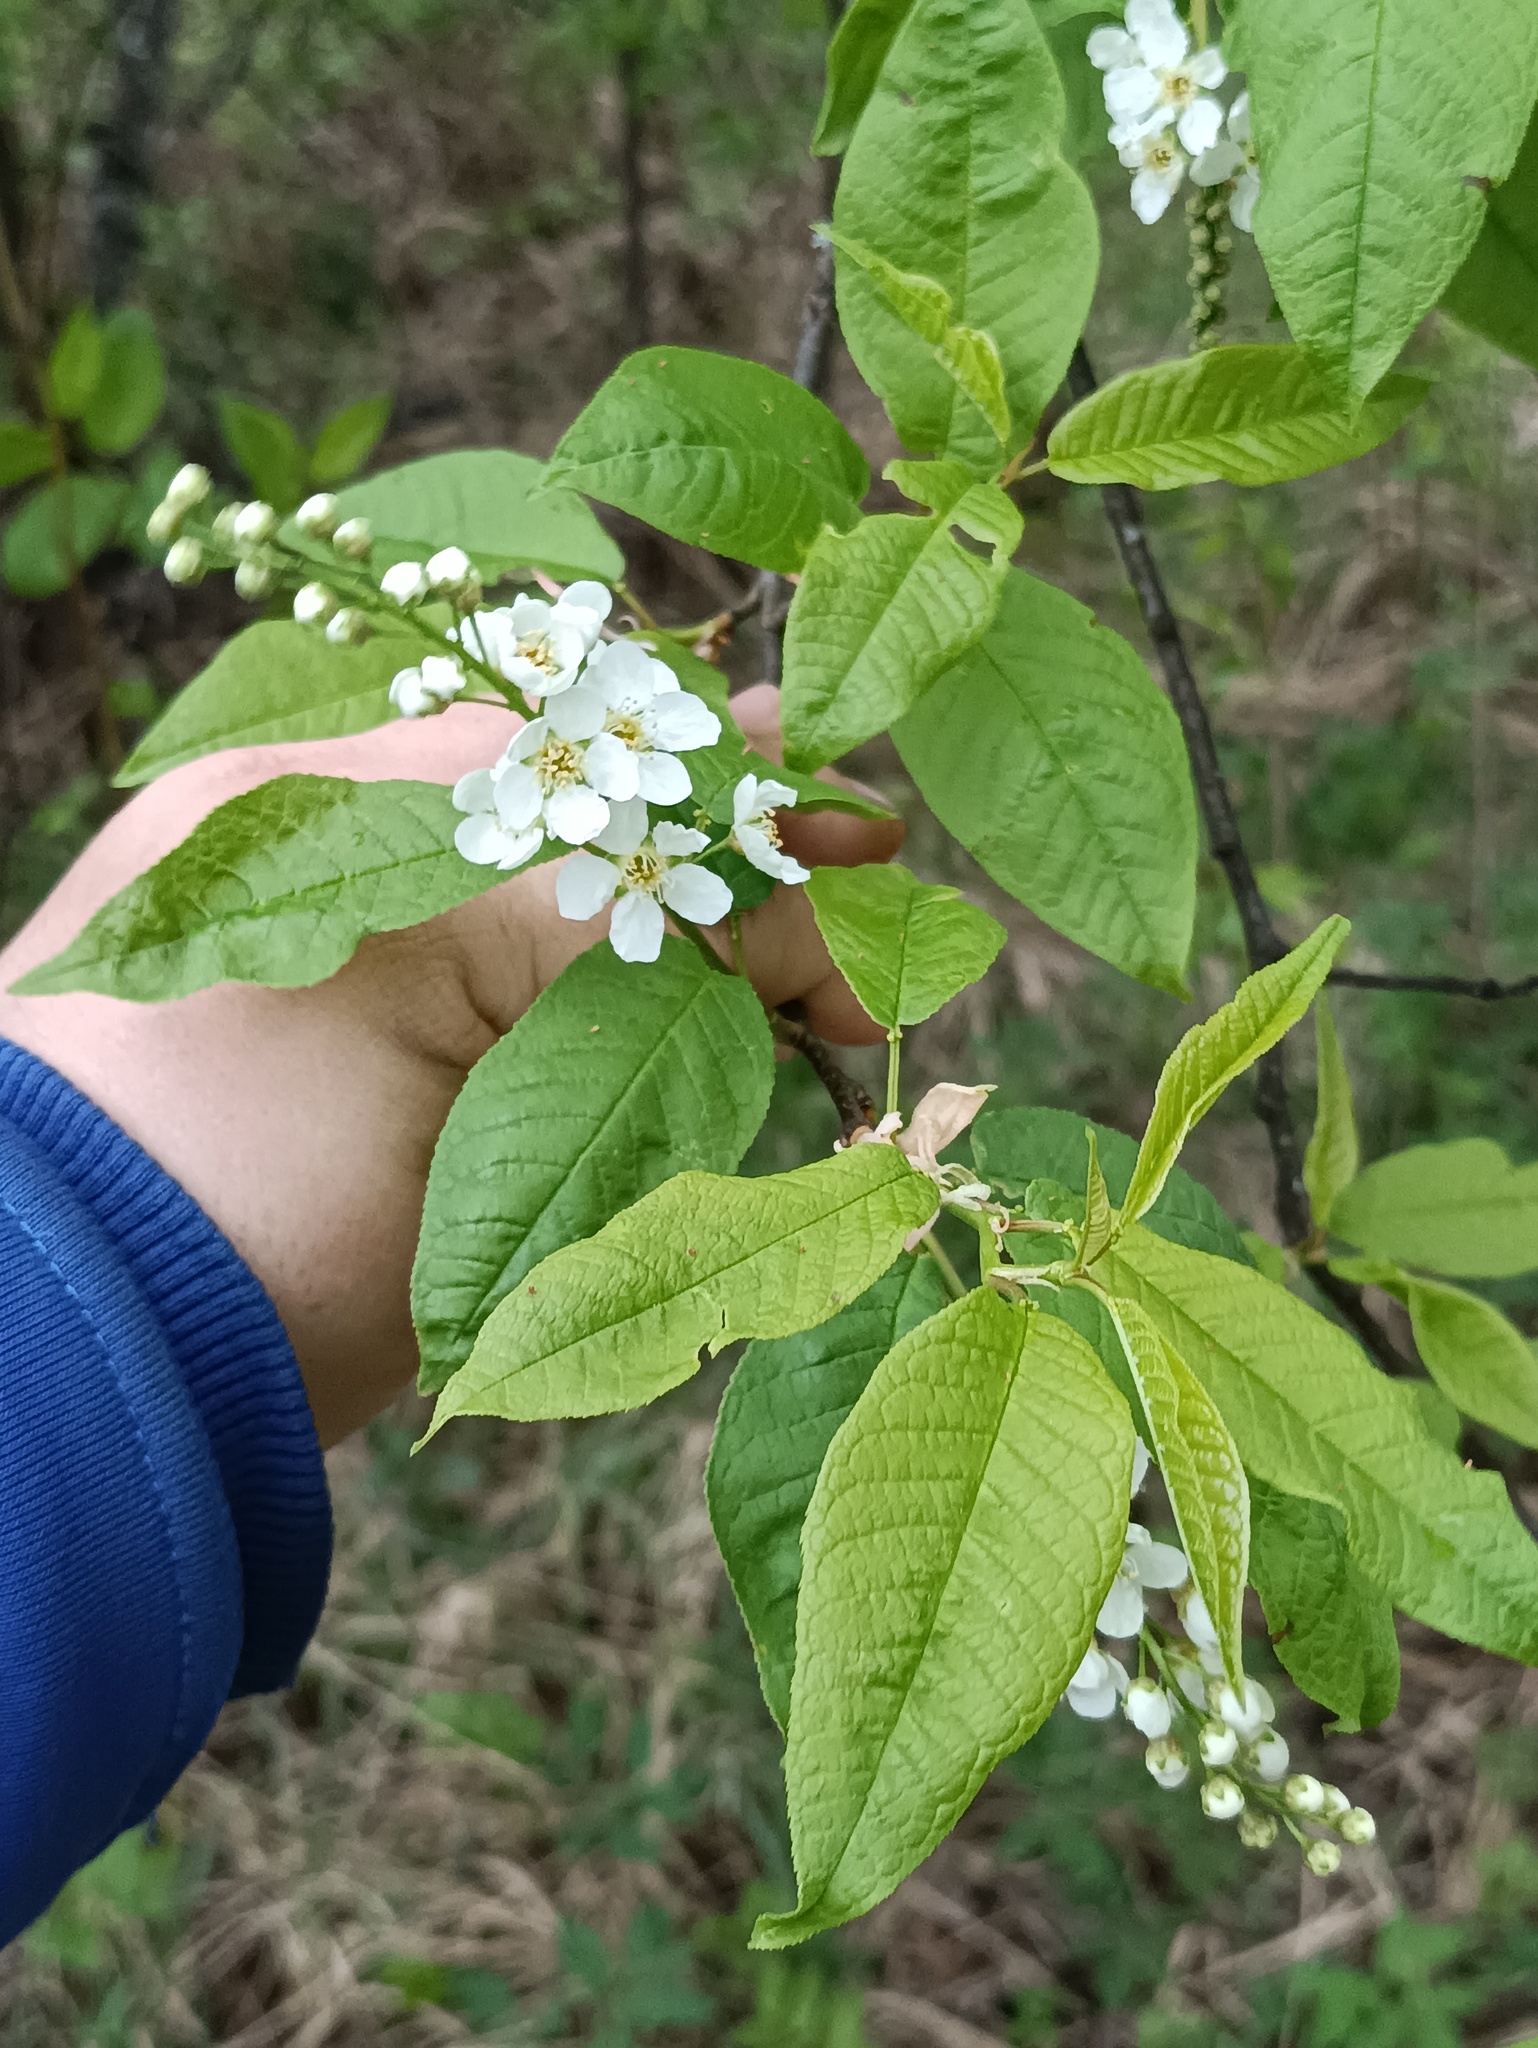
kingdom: Plantae
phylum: Tracheophyta
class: Magnoliopsida
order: Rosales
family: Rosaceae
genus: Prunus
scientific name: Prunus padus
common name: Bird cherry
